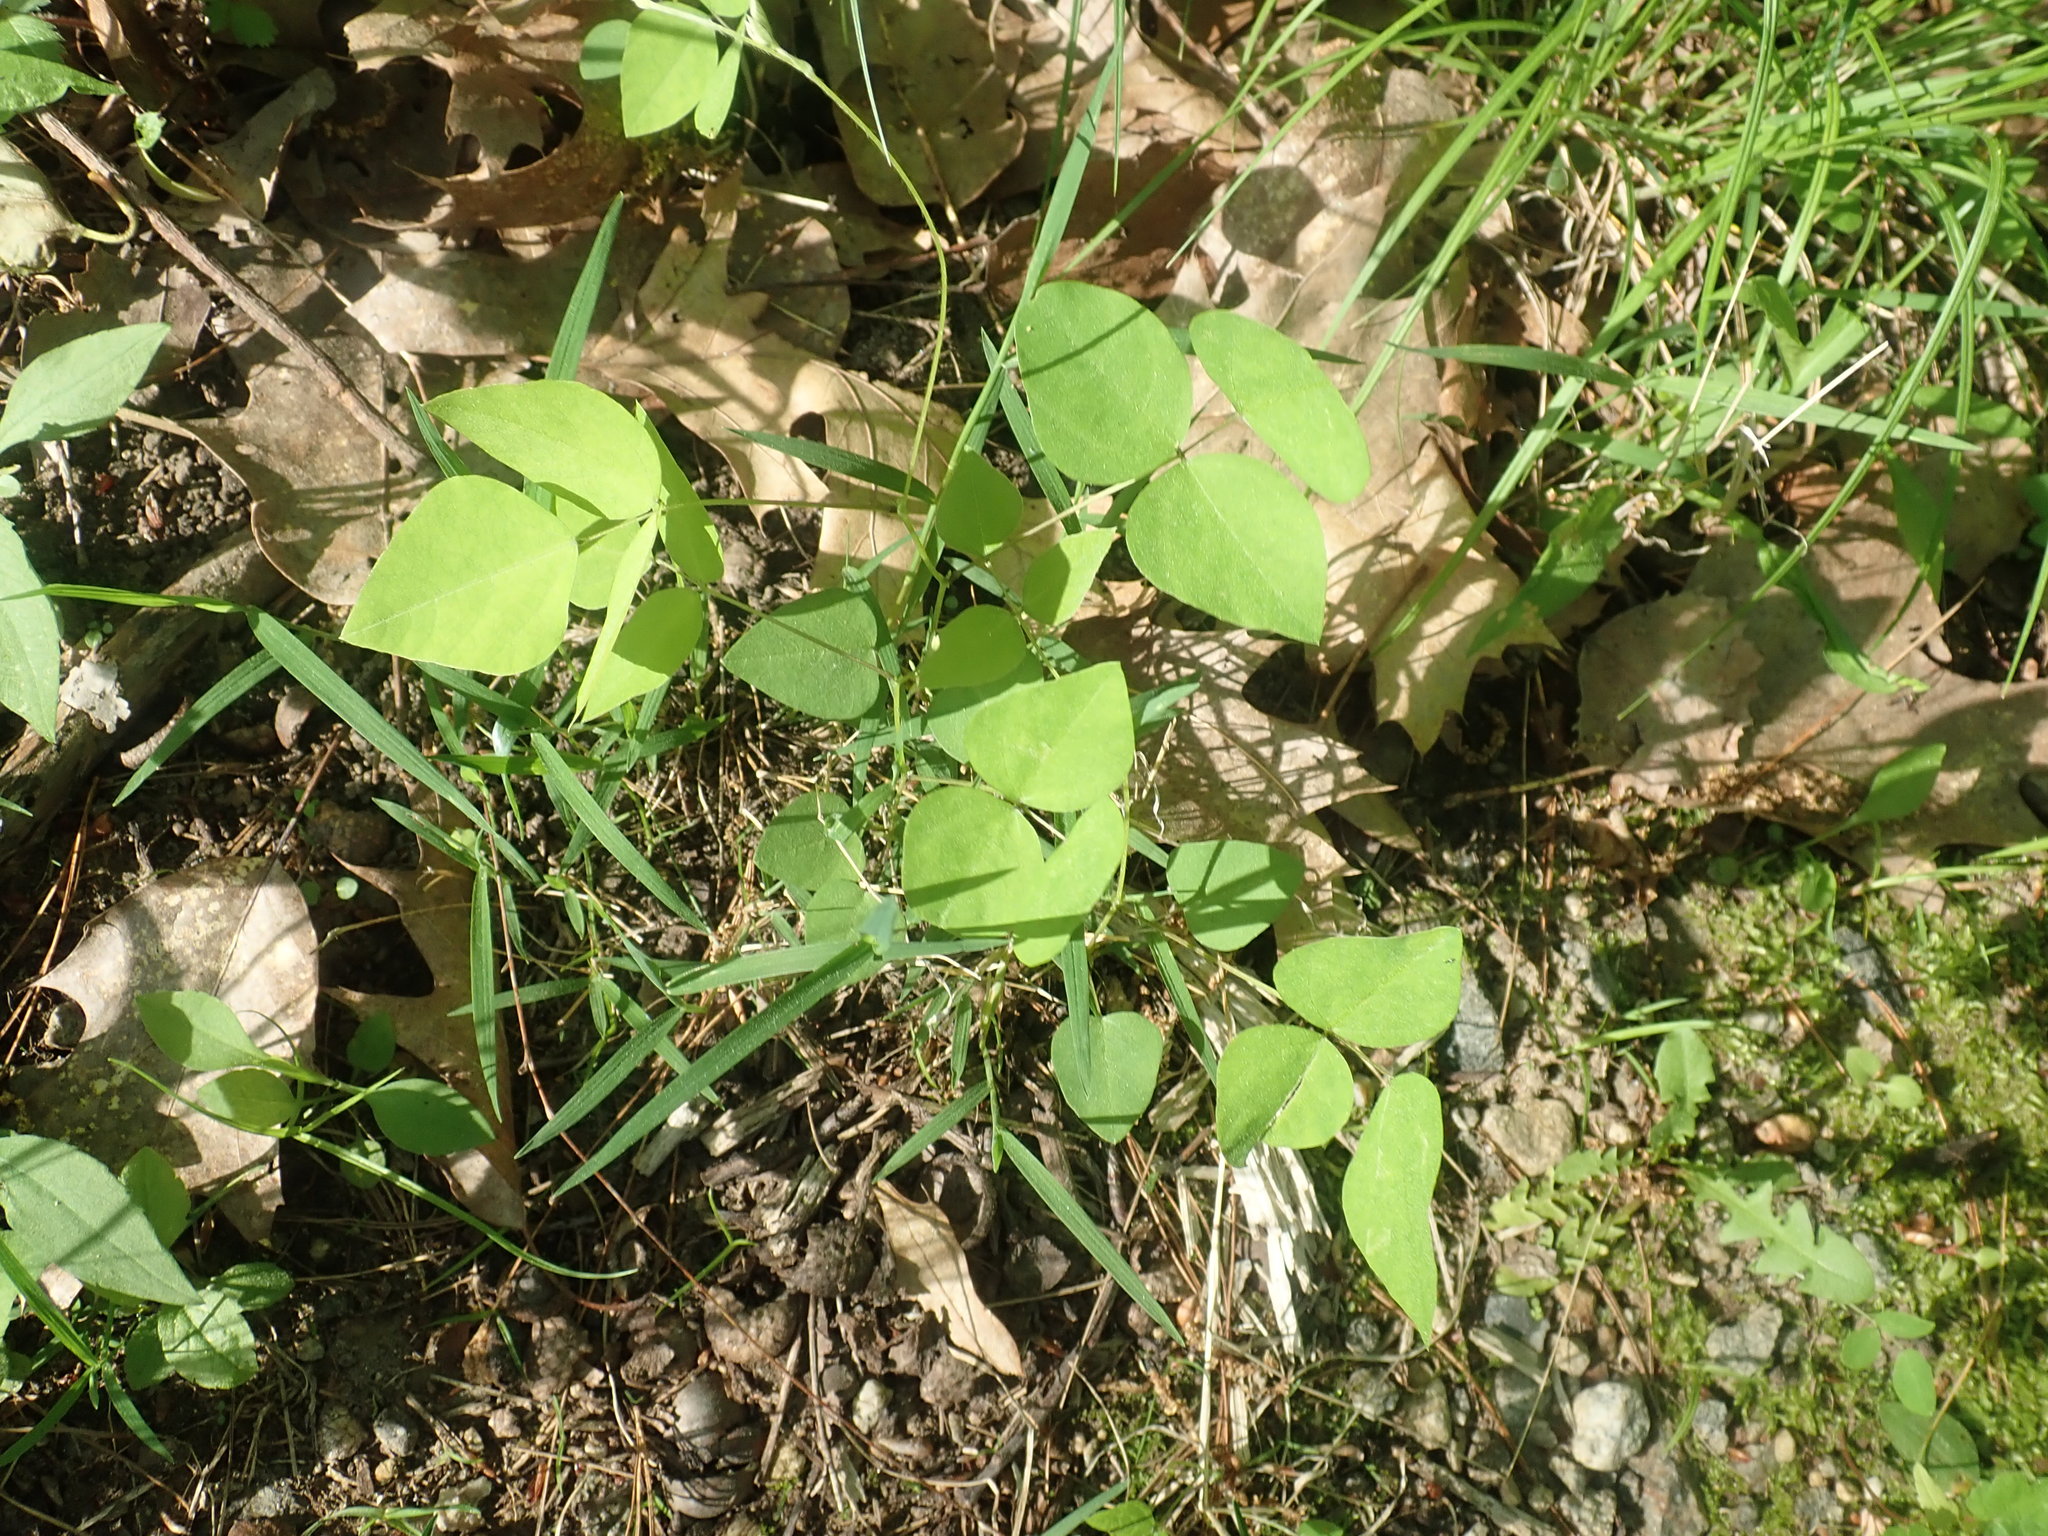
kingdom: Plantae
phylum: Tracheophyta
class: Magnoliopsida
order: Fabales
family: Fabaceae
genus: Amphicarpaea
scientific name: Amphicarpaea bracteata
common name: American hog peanut
